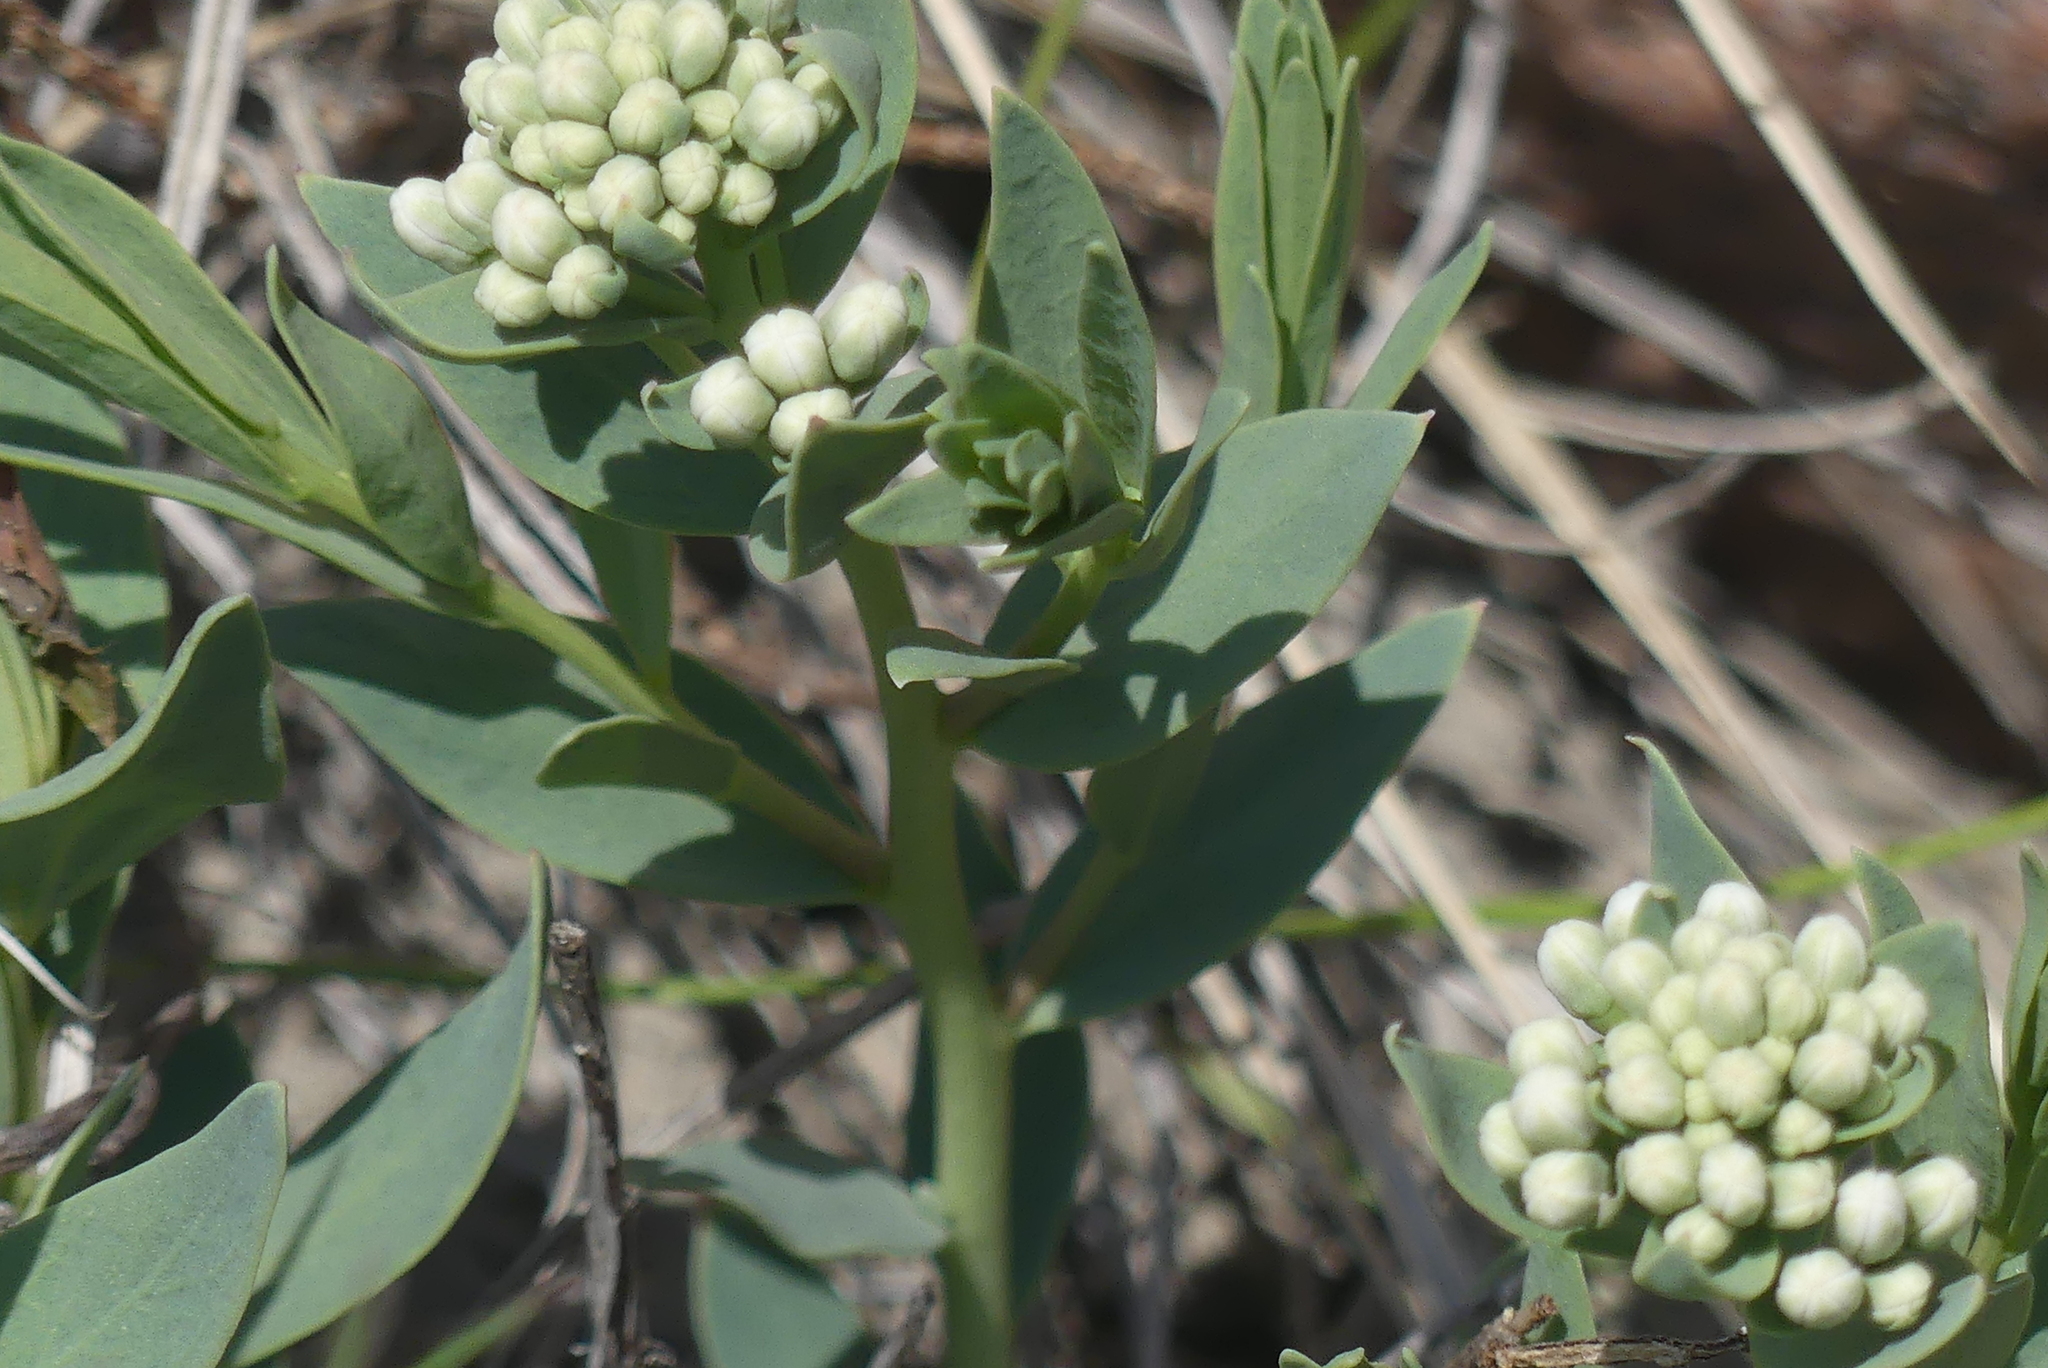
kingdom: Plantae
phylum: Tracheophyta
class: Magnoliopsida
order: Santalales
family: Comandraceae
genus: Comandra
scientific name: Comandra umbellata
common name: Bastard toadflax
